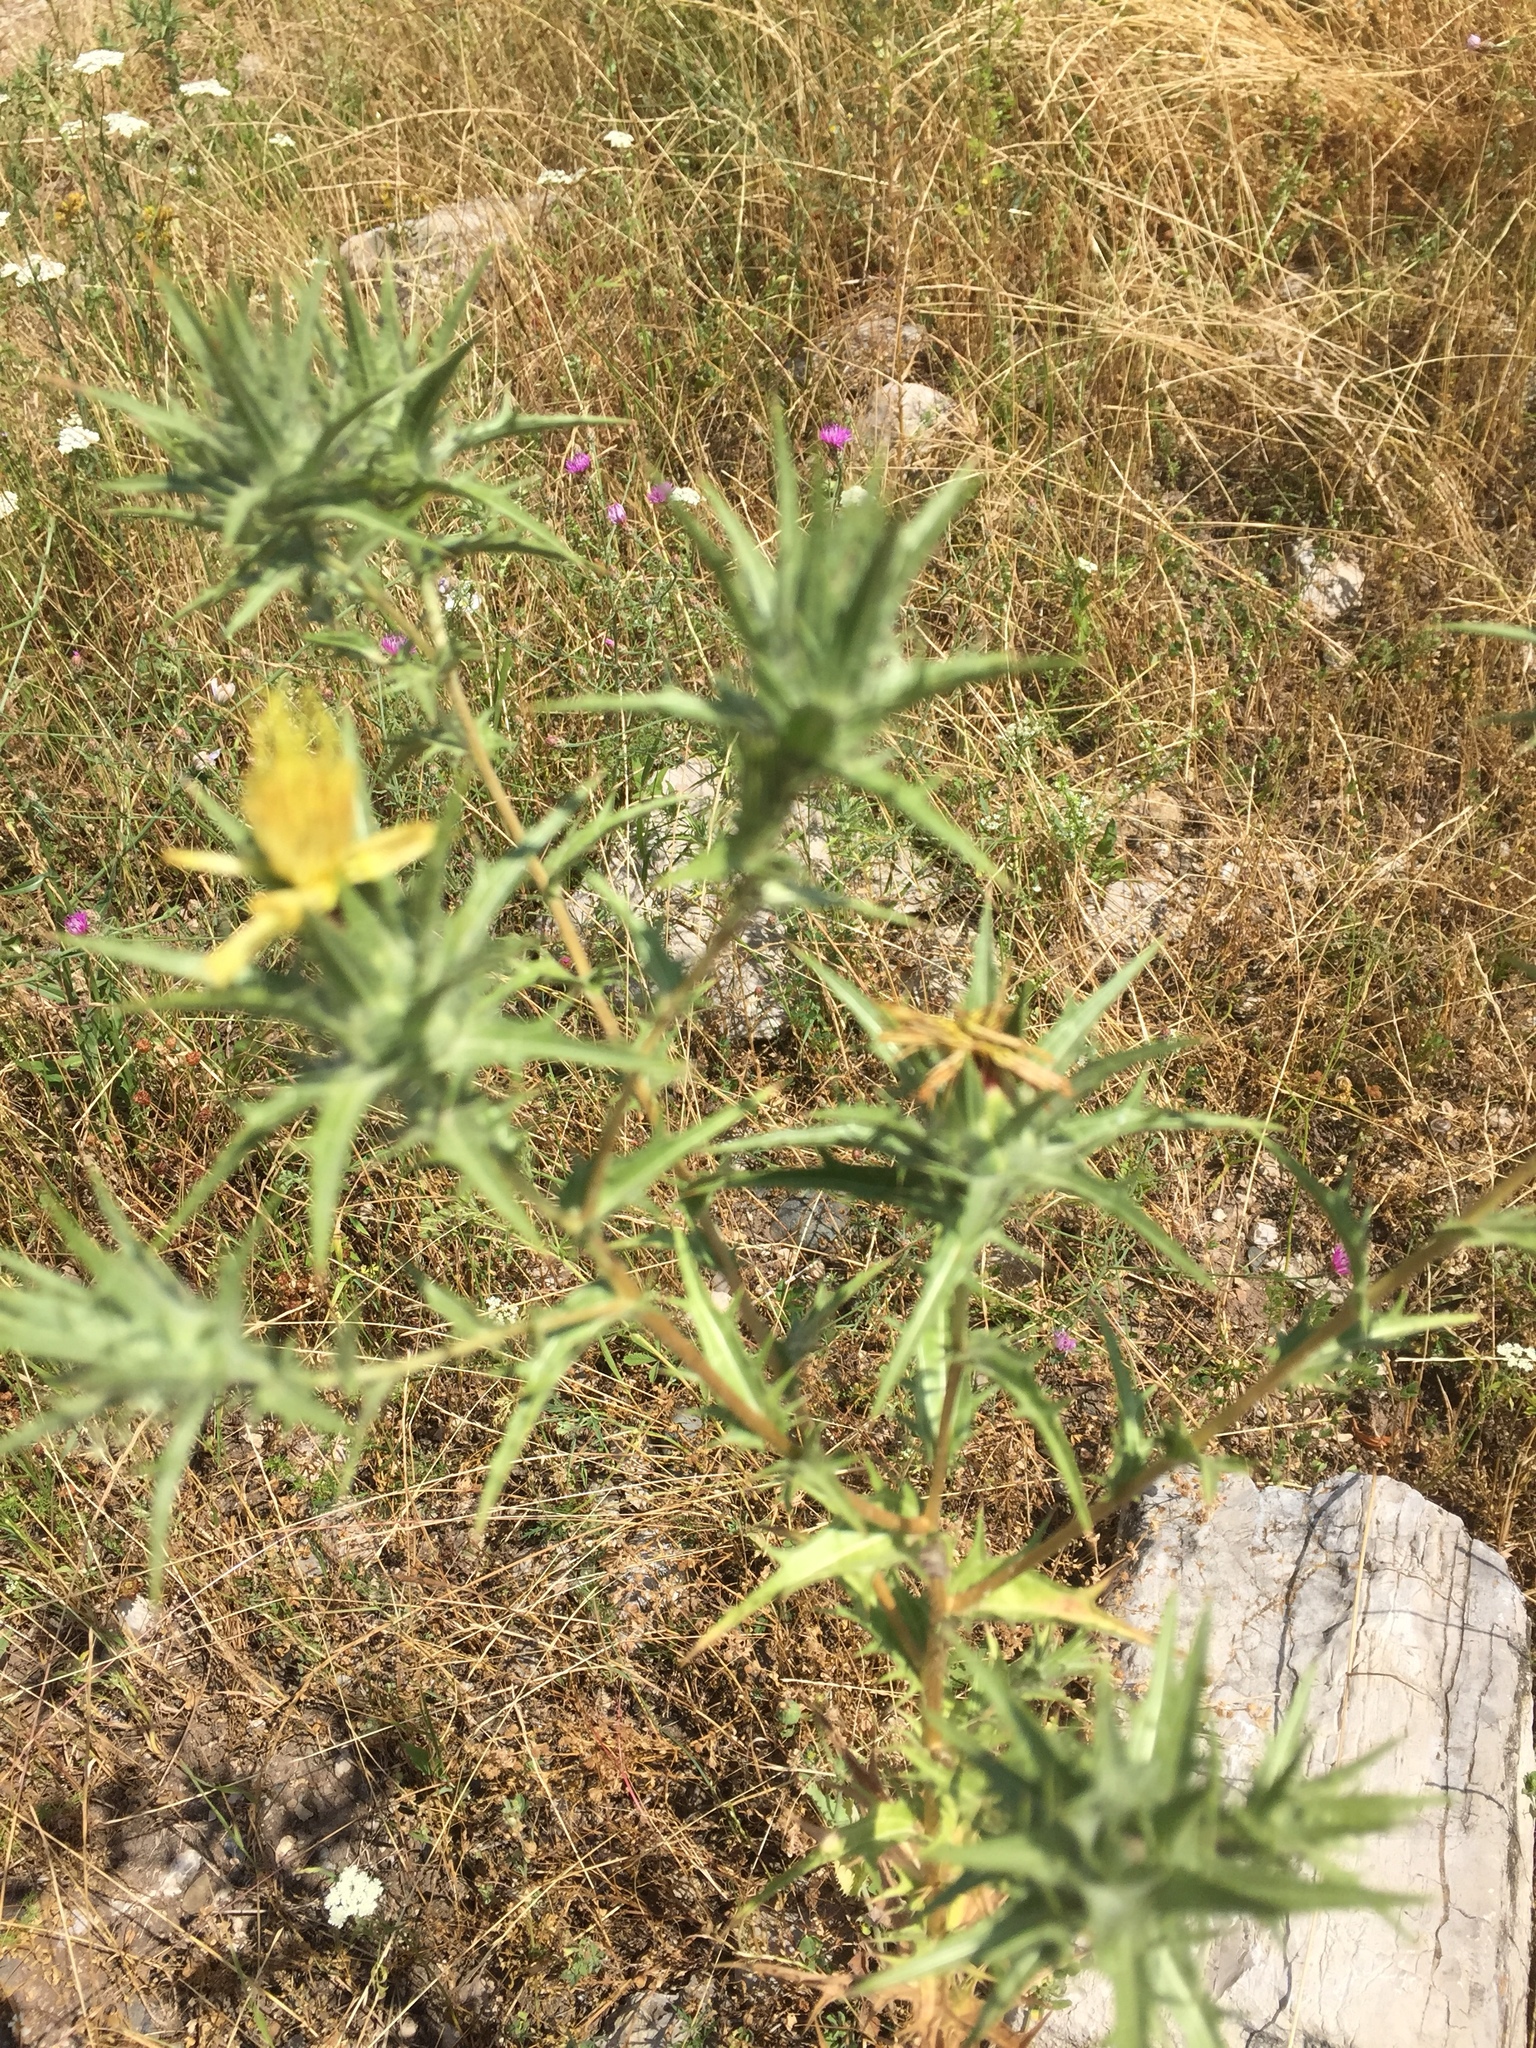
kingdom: Plantae
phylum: Tracheophyta
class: Magnoliopsida
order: Asterales
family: Asteraceae
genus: Carthamus
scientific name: Carthamus lanatus
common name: Downy safflower
